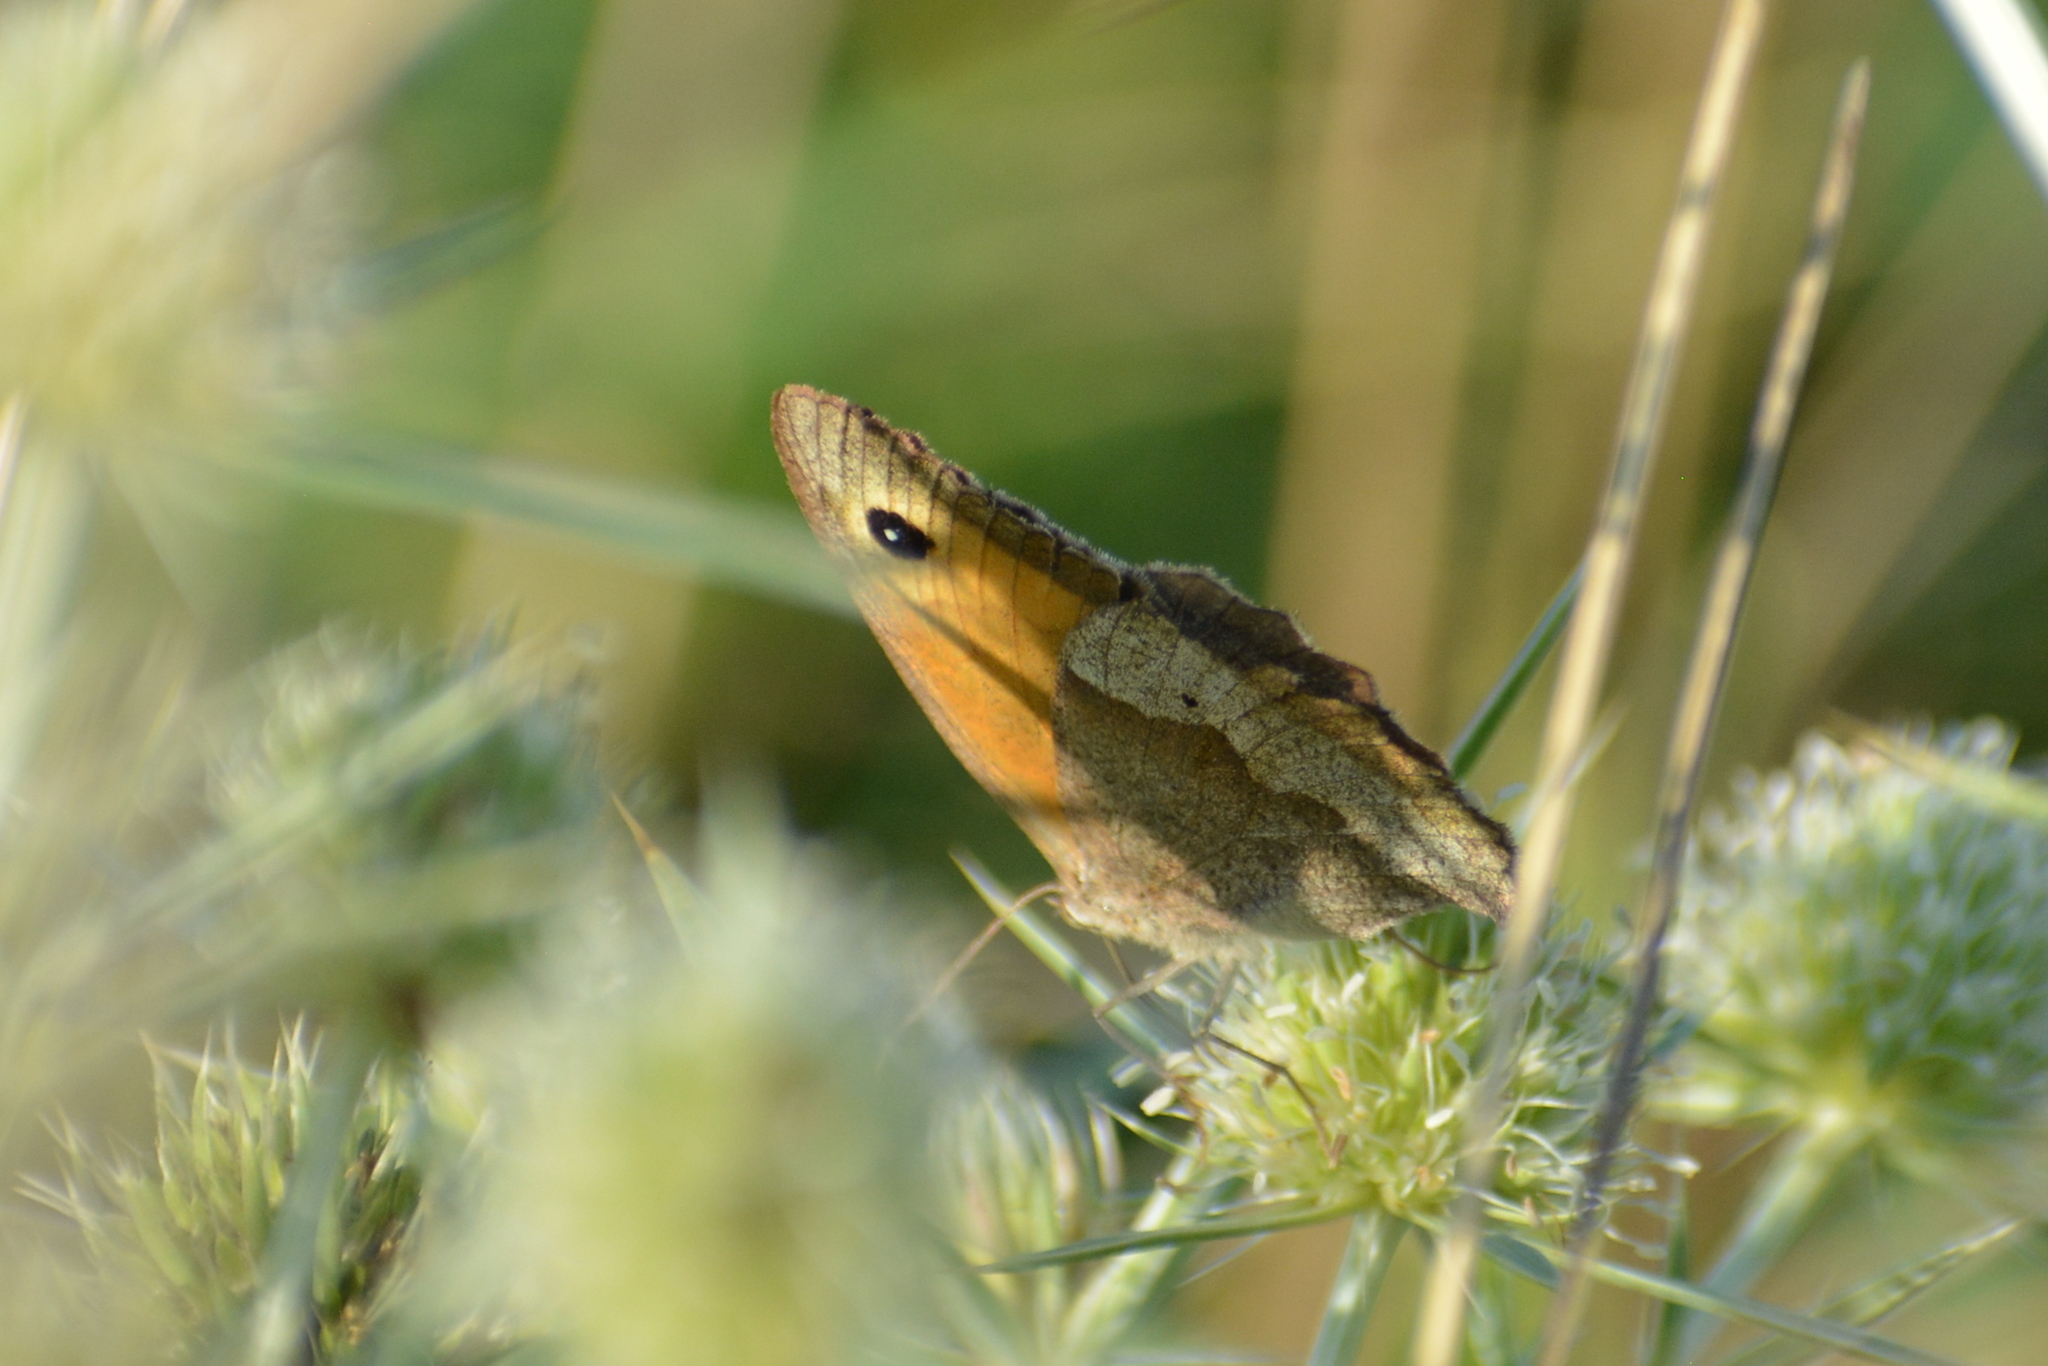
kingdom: Animalia
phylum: Arthropoda
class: Insecta
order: Lepidoptera
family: Nymphalidae
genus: Maniola
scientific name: Maniola jurtina
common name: Meadow brown
